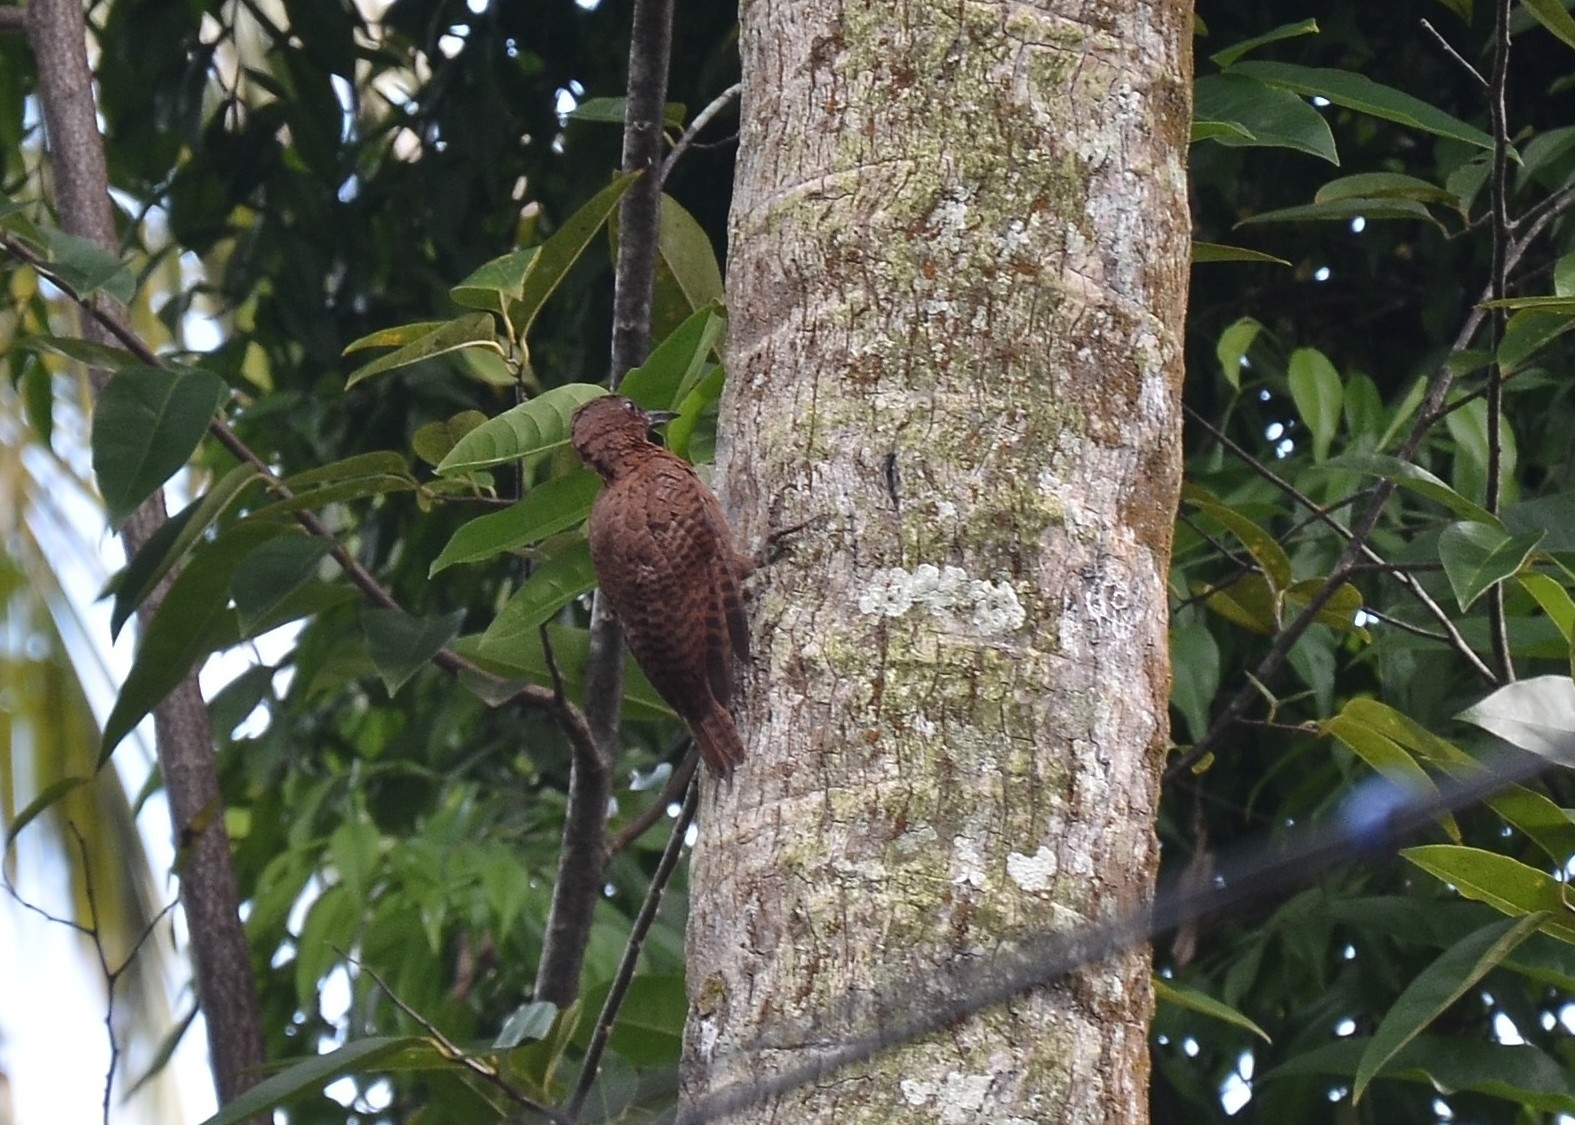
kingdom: Animalia
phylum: Chordata
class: Aves
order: Piciformes
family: Picidae
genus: Micropternus
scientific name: Micropternus brachyurus
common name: Rufous woodpecker
